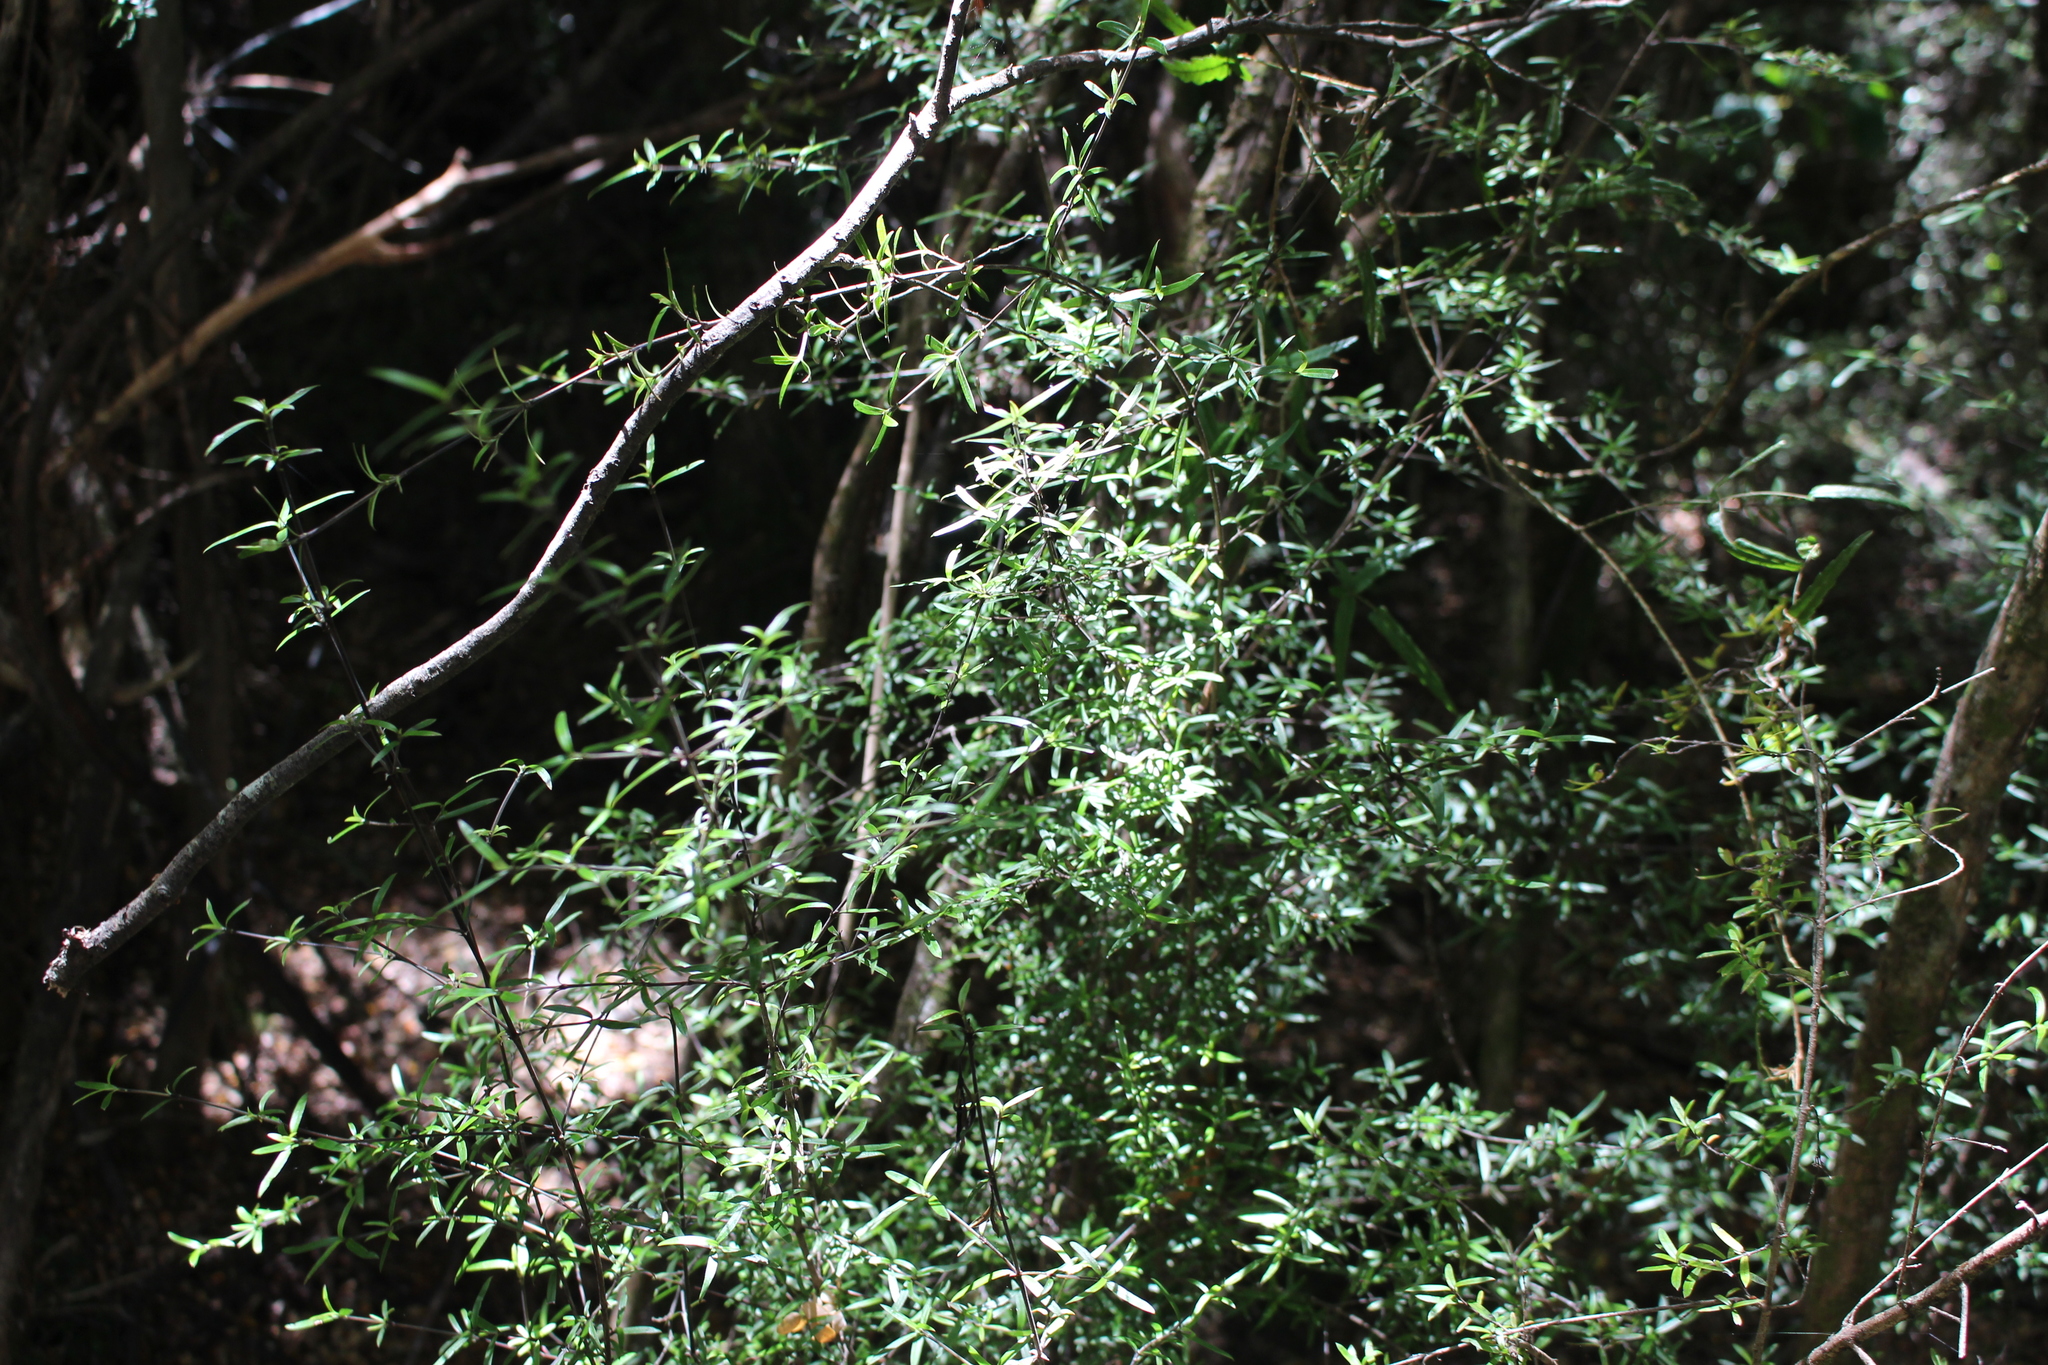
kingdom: Plantae
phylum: Tracheophyta
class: Magnoliopsida
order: Gentianales
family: Rubiaceae
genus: Coprosma
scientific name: Coprosma linariifolia
